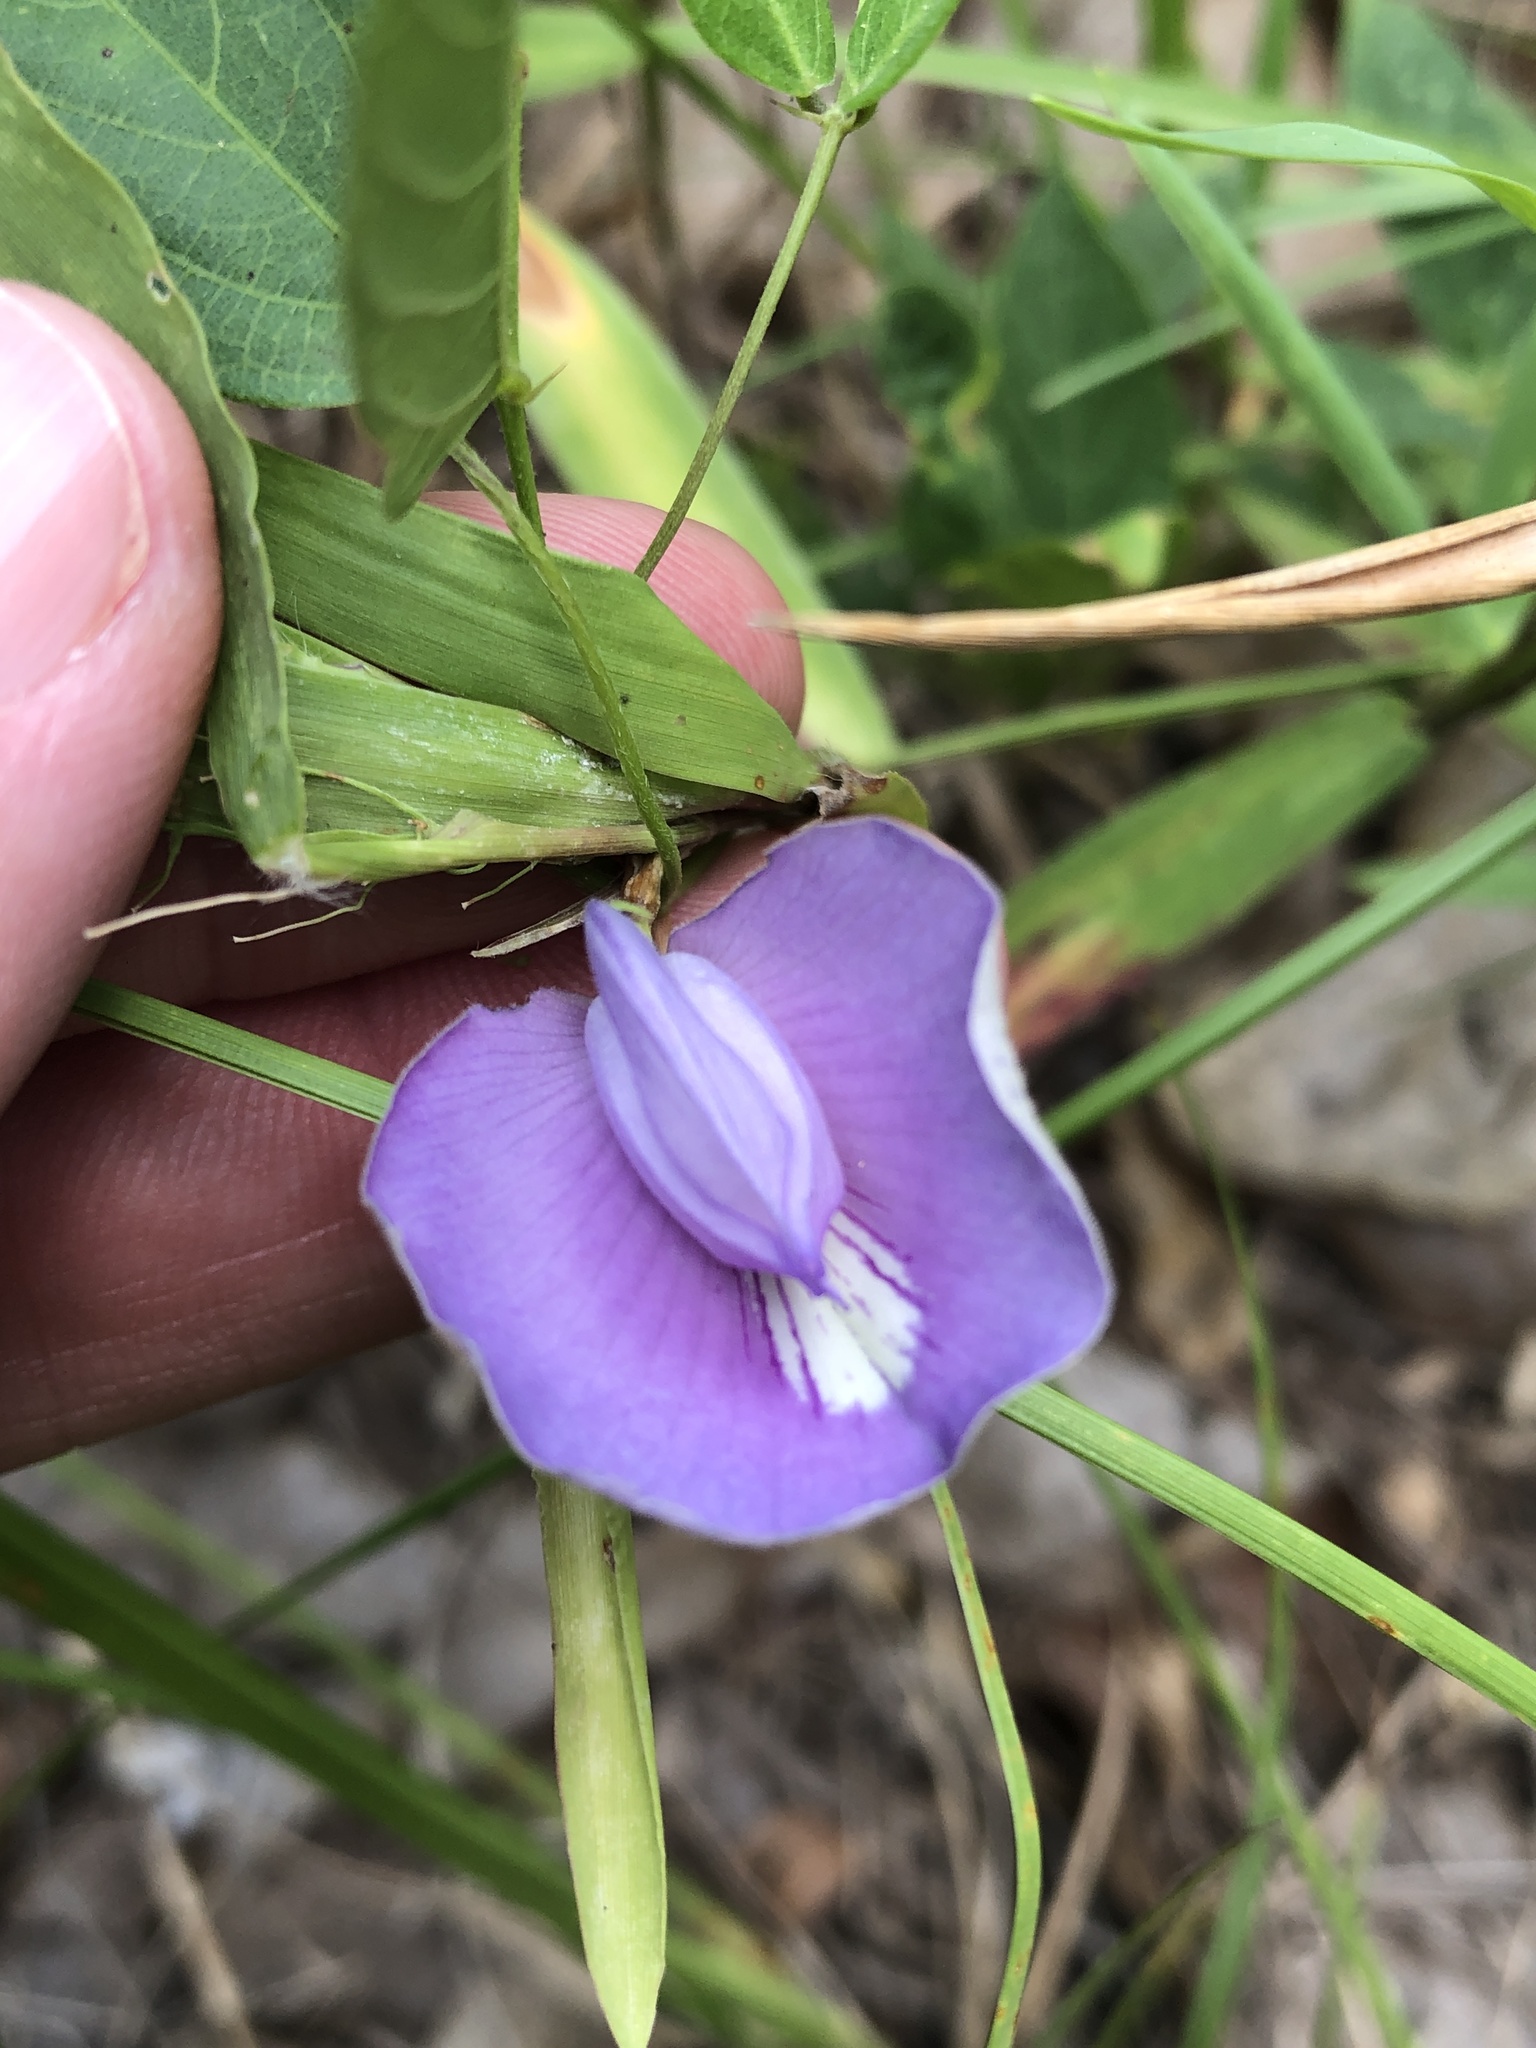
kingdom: Plantae
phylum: Tracheophyta
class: Magnoliopsida
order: Fabales
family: Fabaceae
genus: Centrosema
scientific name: Centrosema virginianum
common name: Butterfly-pea
